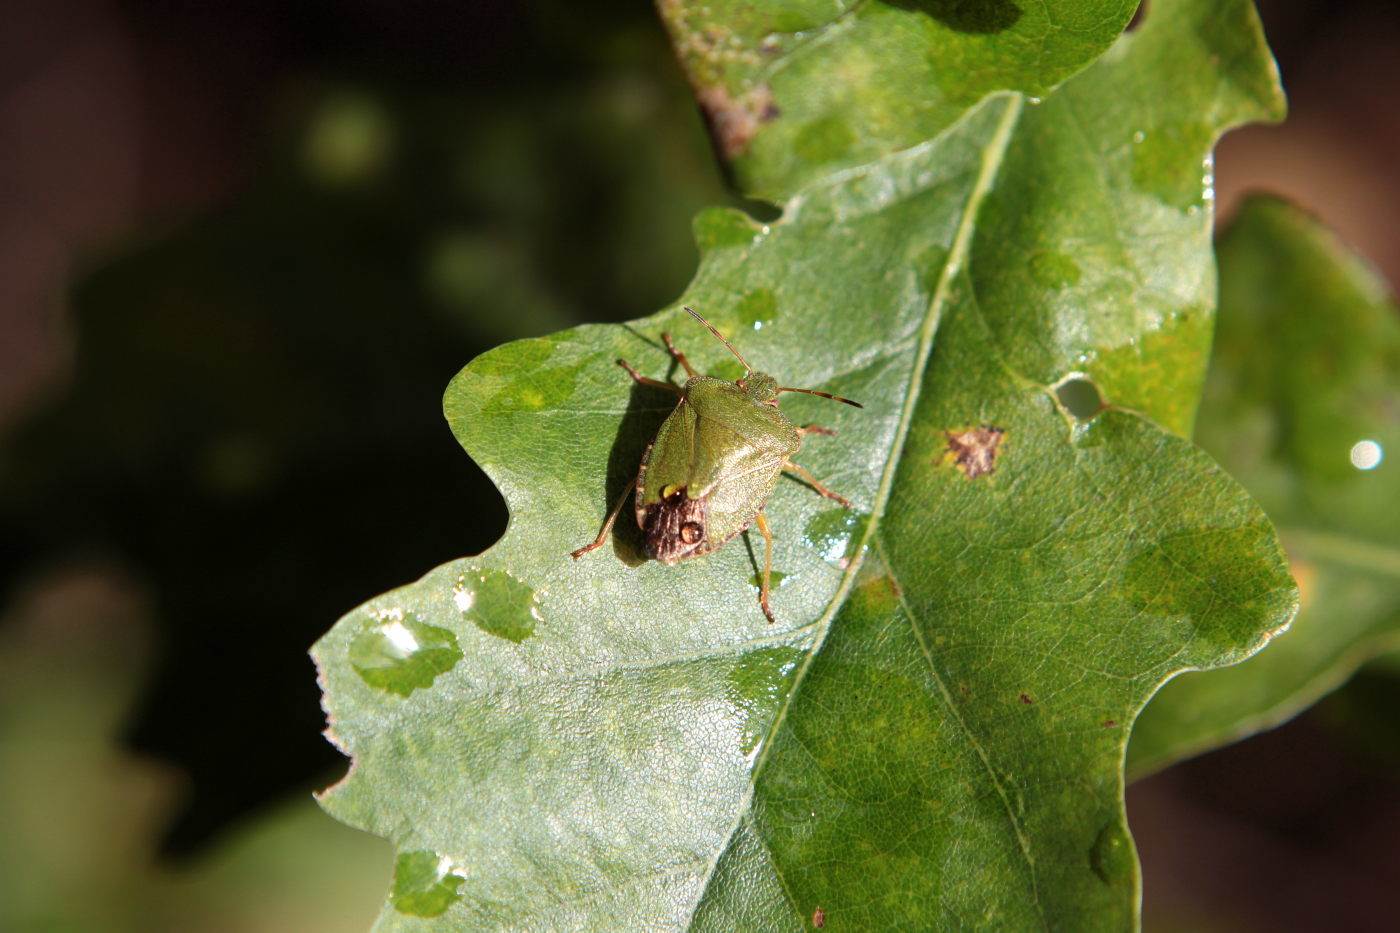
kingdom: Animalia
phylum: Arthropoda
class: Insecta
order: Hemiptera
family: Pentatomidae
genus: Palomena
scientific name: Palomena prasina
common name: Green shieldbug
